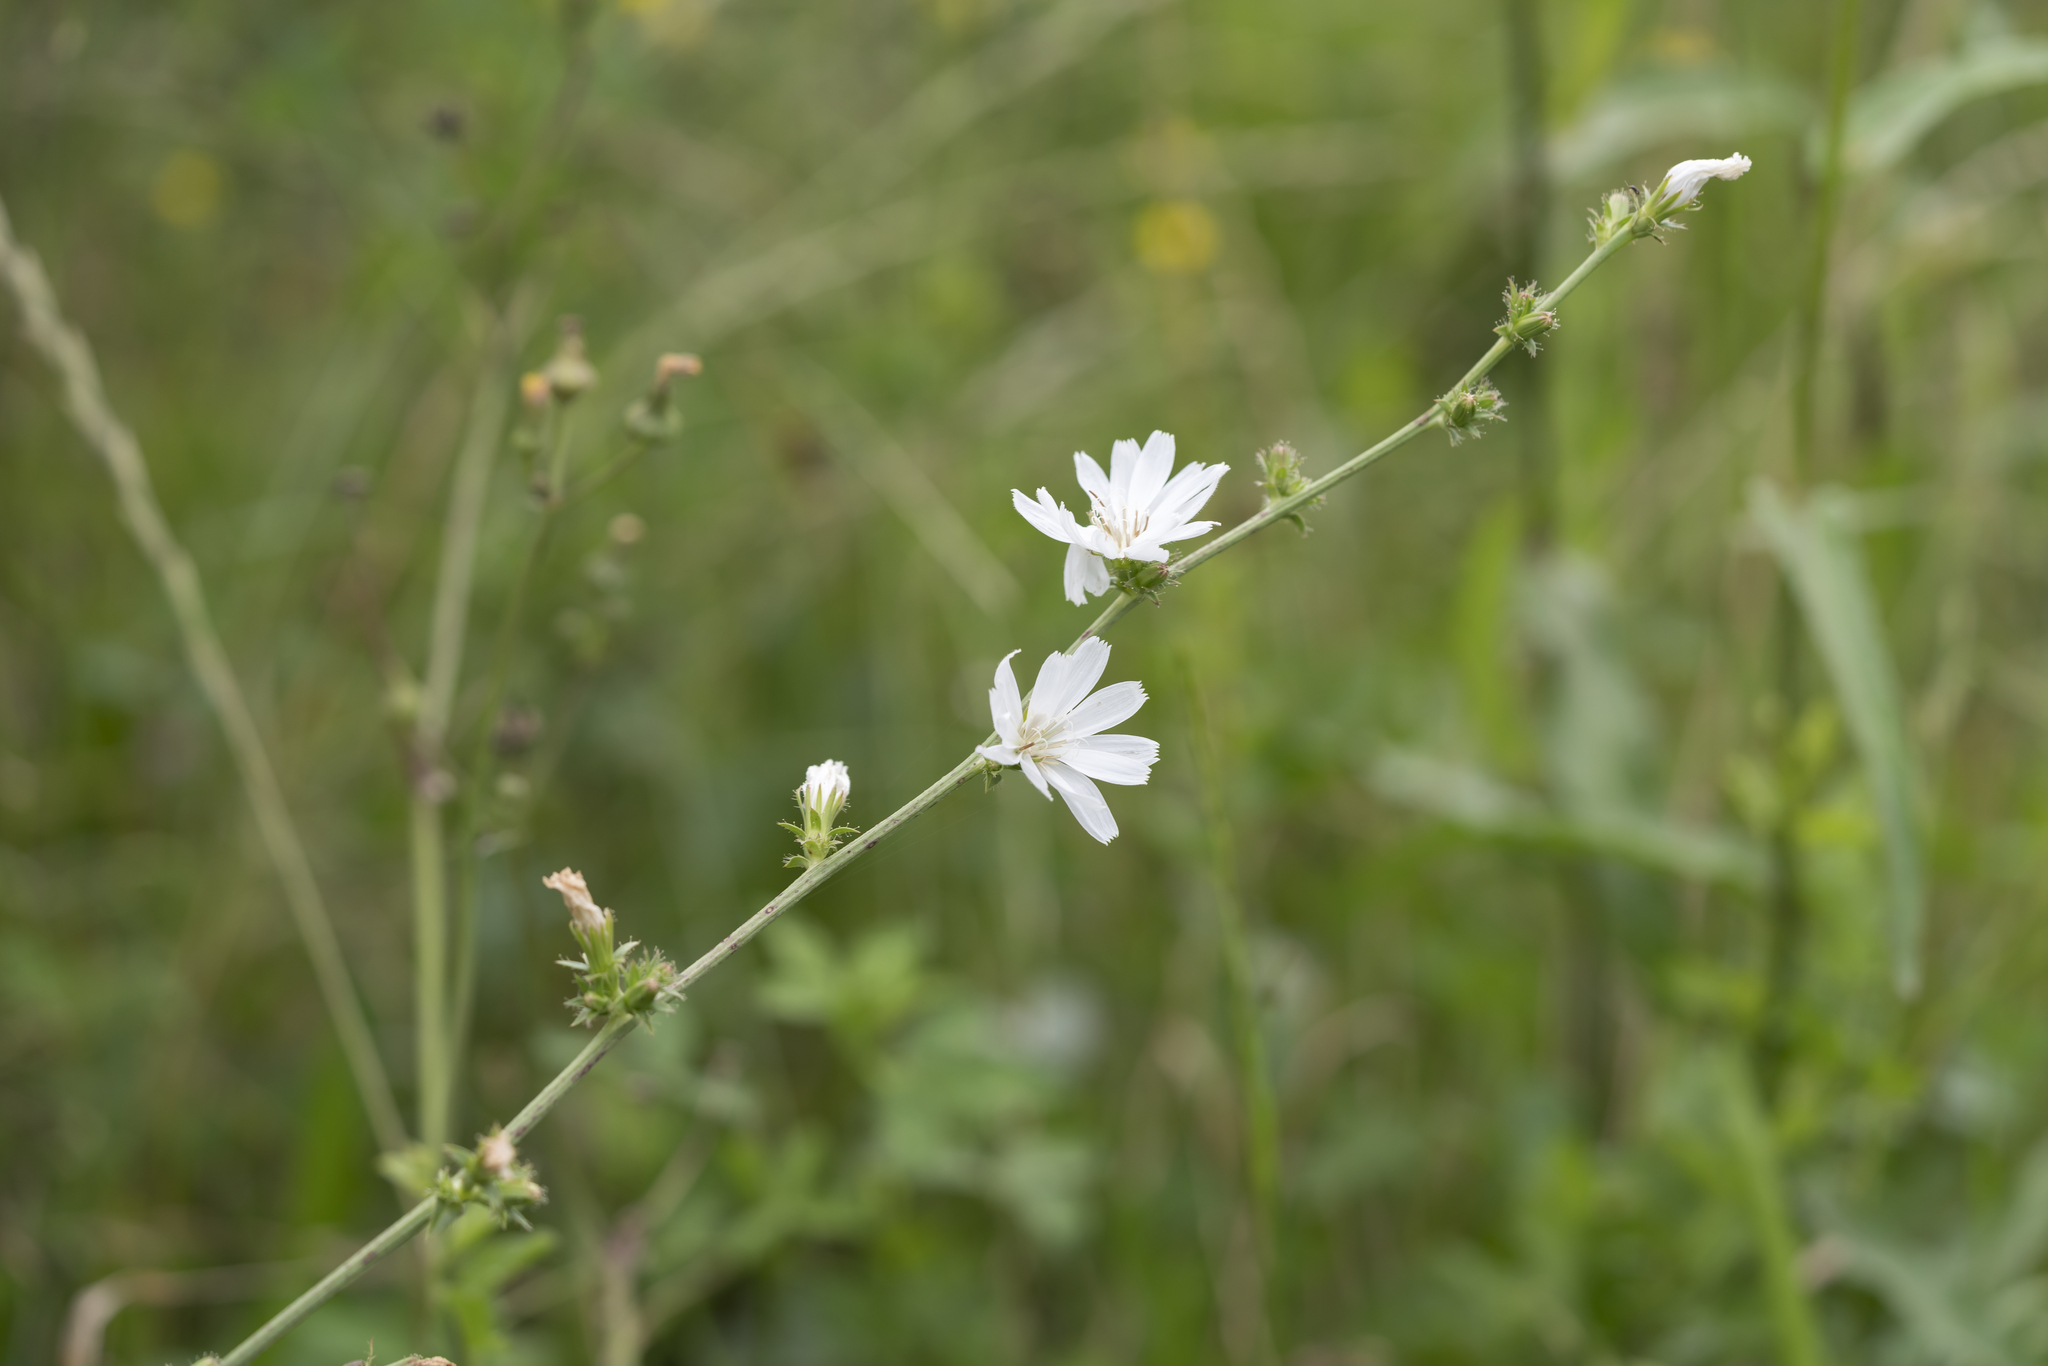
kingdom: Plantae
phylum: Tracheophyta
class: Magnoliopsida
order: Asterales
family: Asteraceae
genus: Cichorium
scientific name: Cichorium intybus
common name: Chicory
